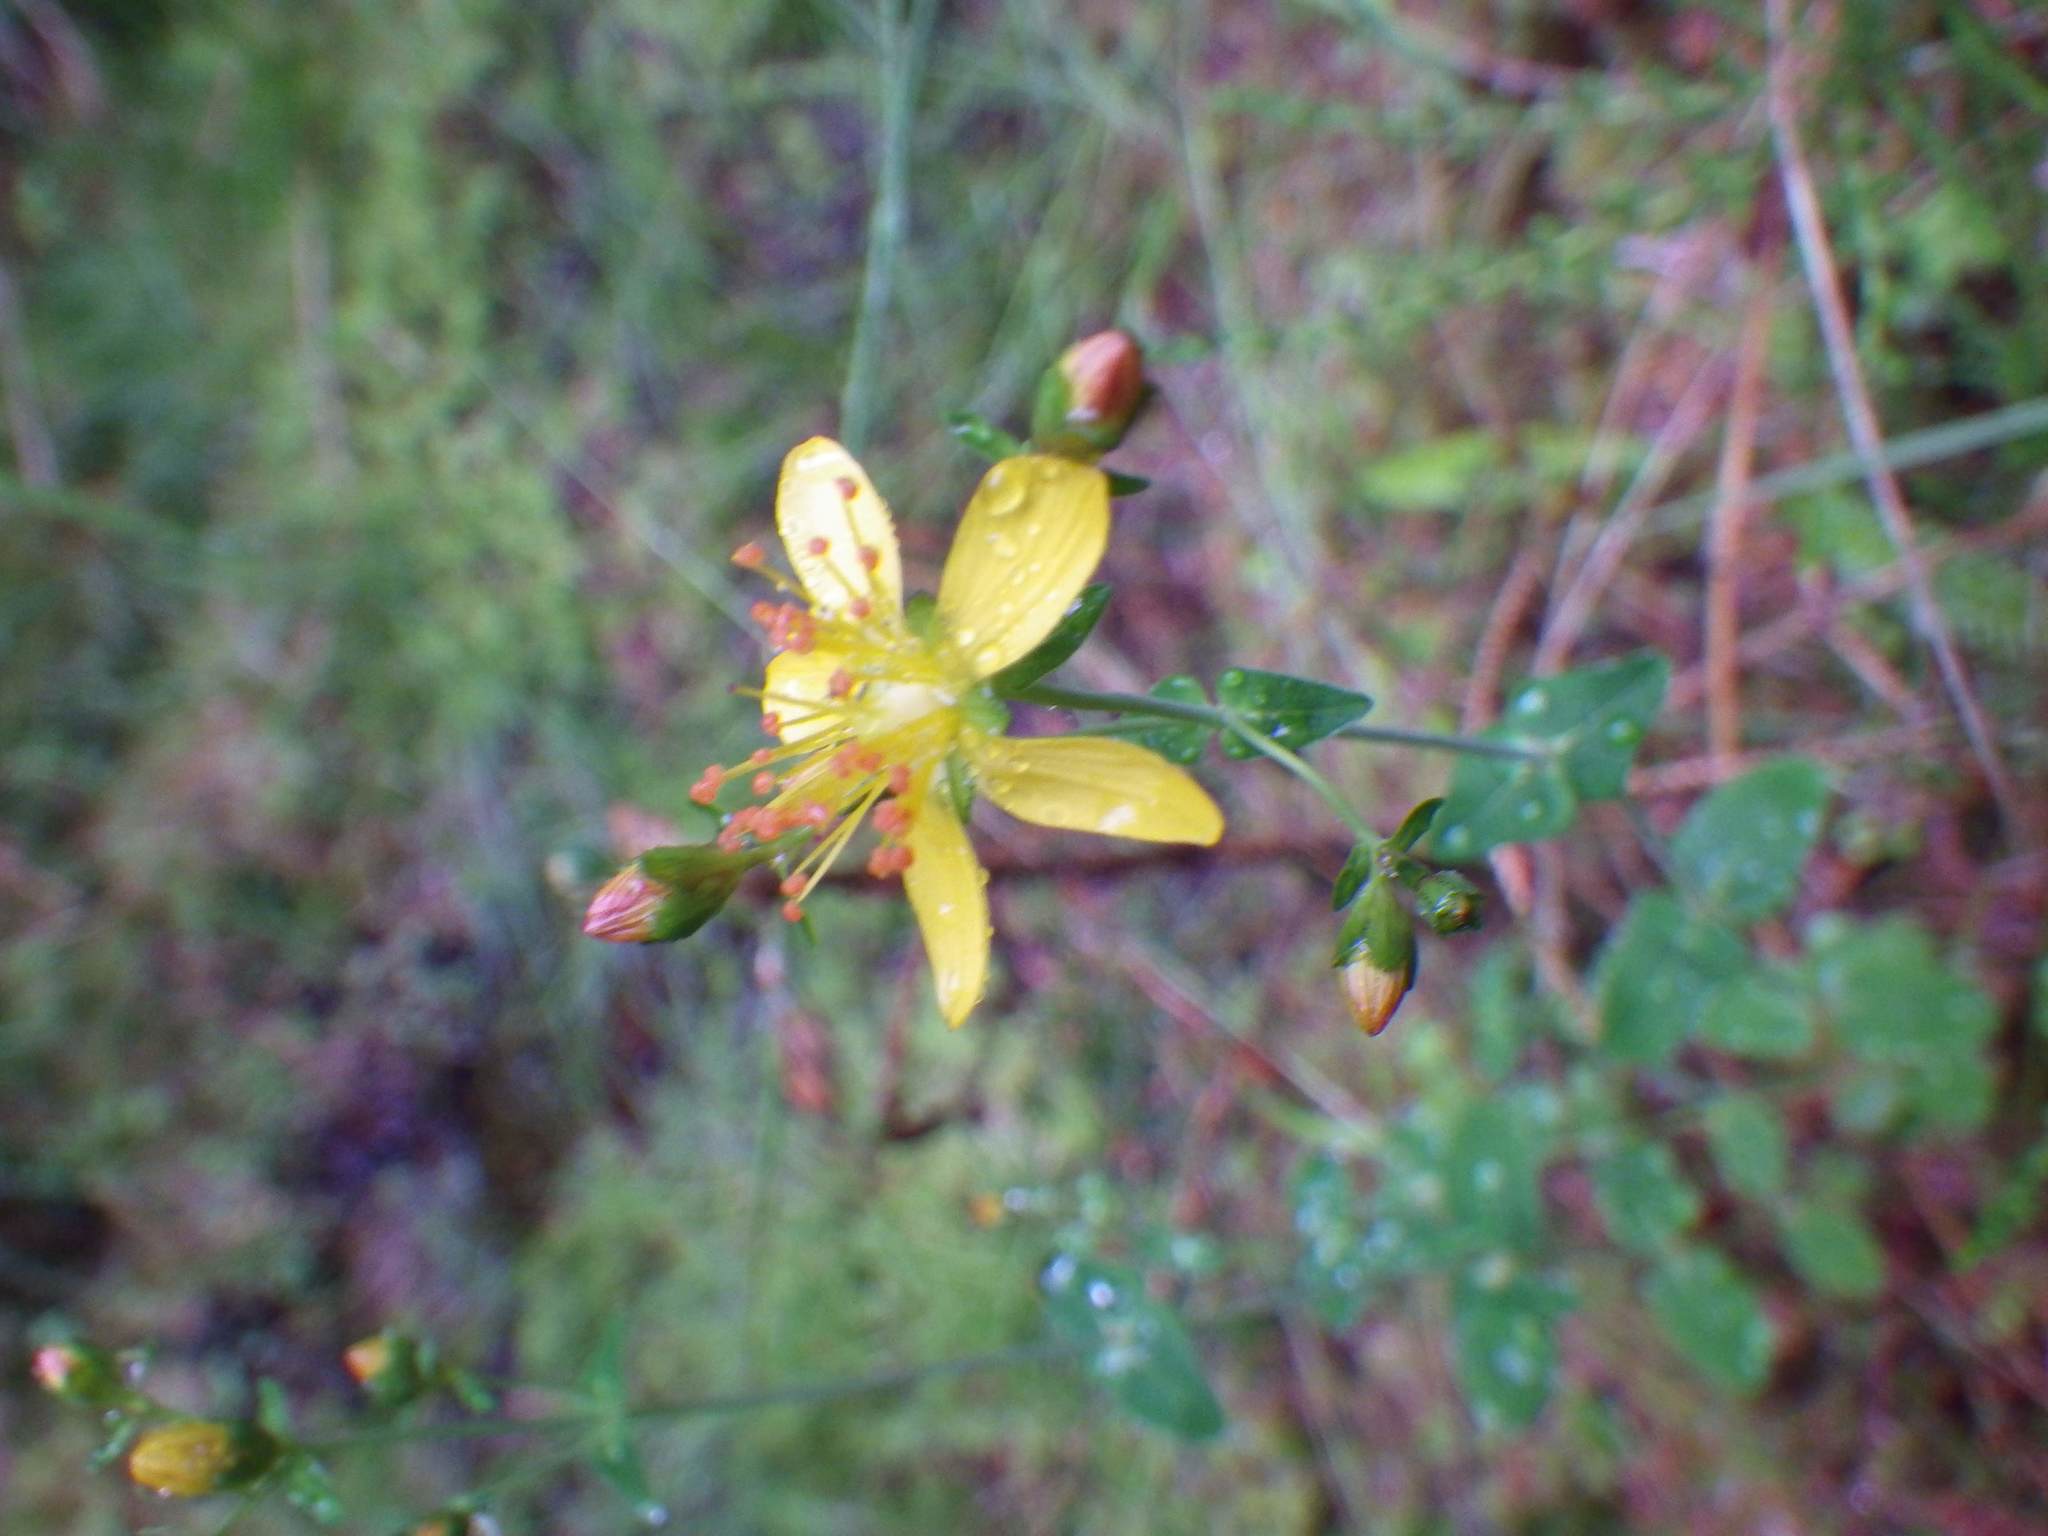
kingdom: Plantae
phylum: Tracheophyta
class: Magnoliopsida
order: Malpighiales
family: Hypericaceae
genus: Hypericum
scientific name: Hypericum pulchrum
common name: Slender st. john's-wort
